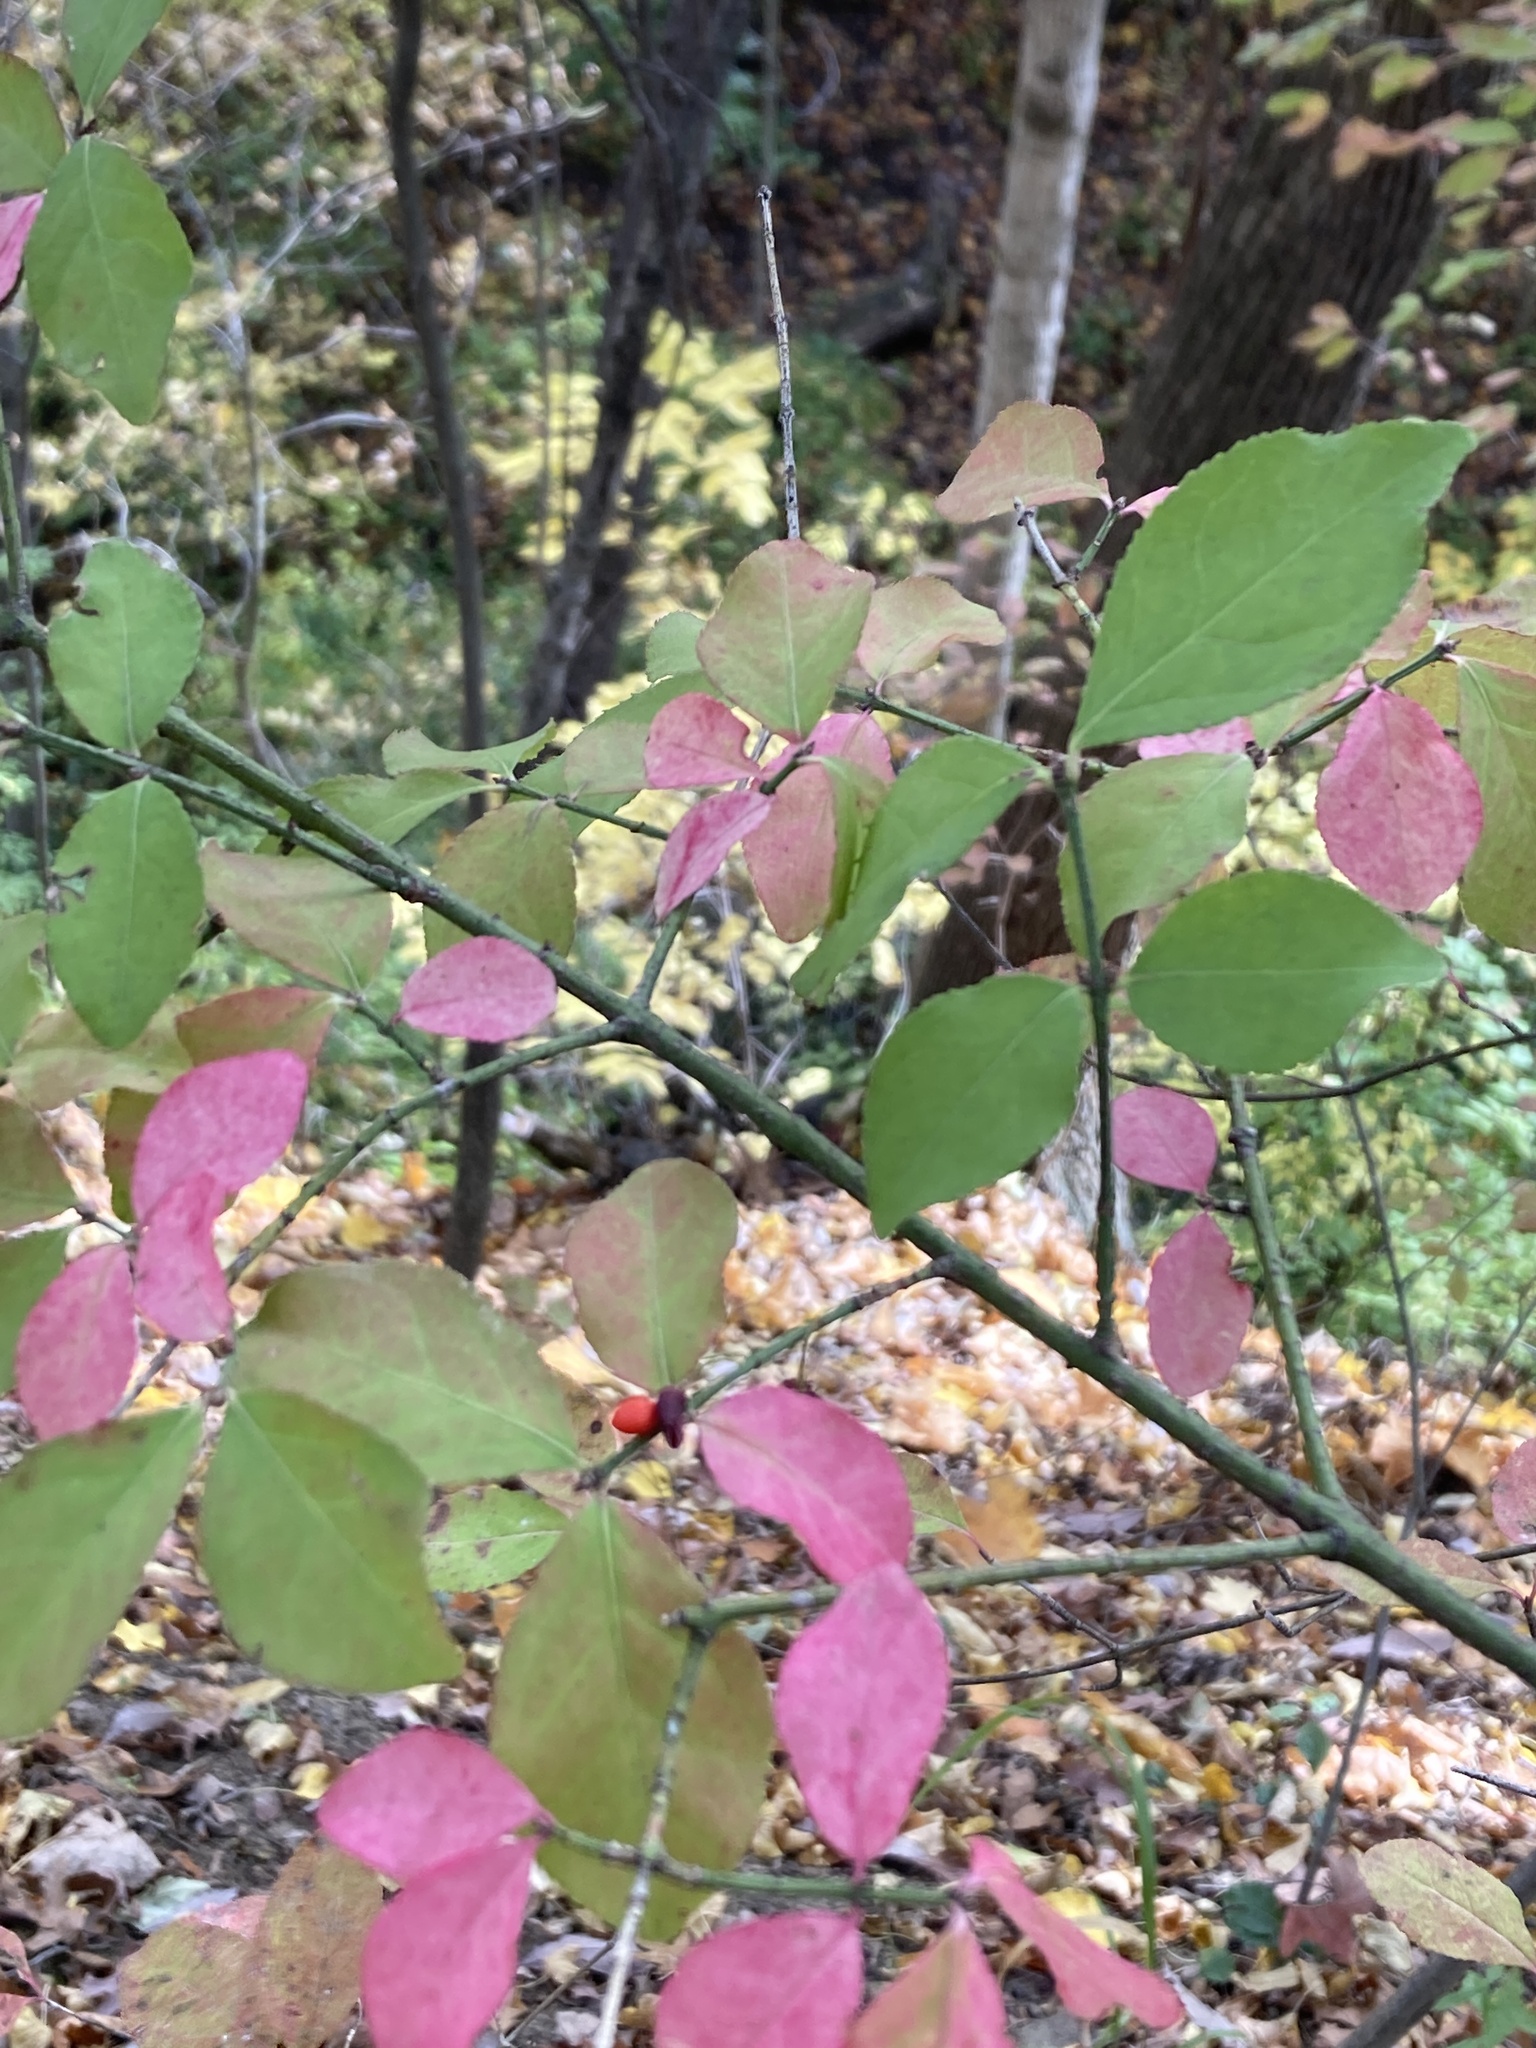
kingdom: Plantae
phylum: Tracheophyta
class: Magnoliopsida
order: Celastrales
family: Celastraceae
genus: Euonymus
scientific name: Euonymus alatus
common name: Winged euonymus
